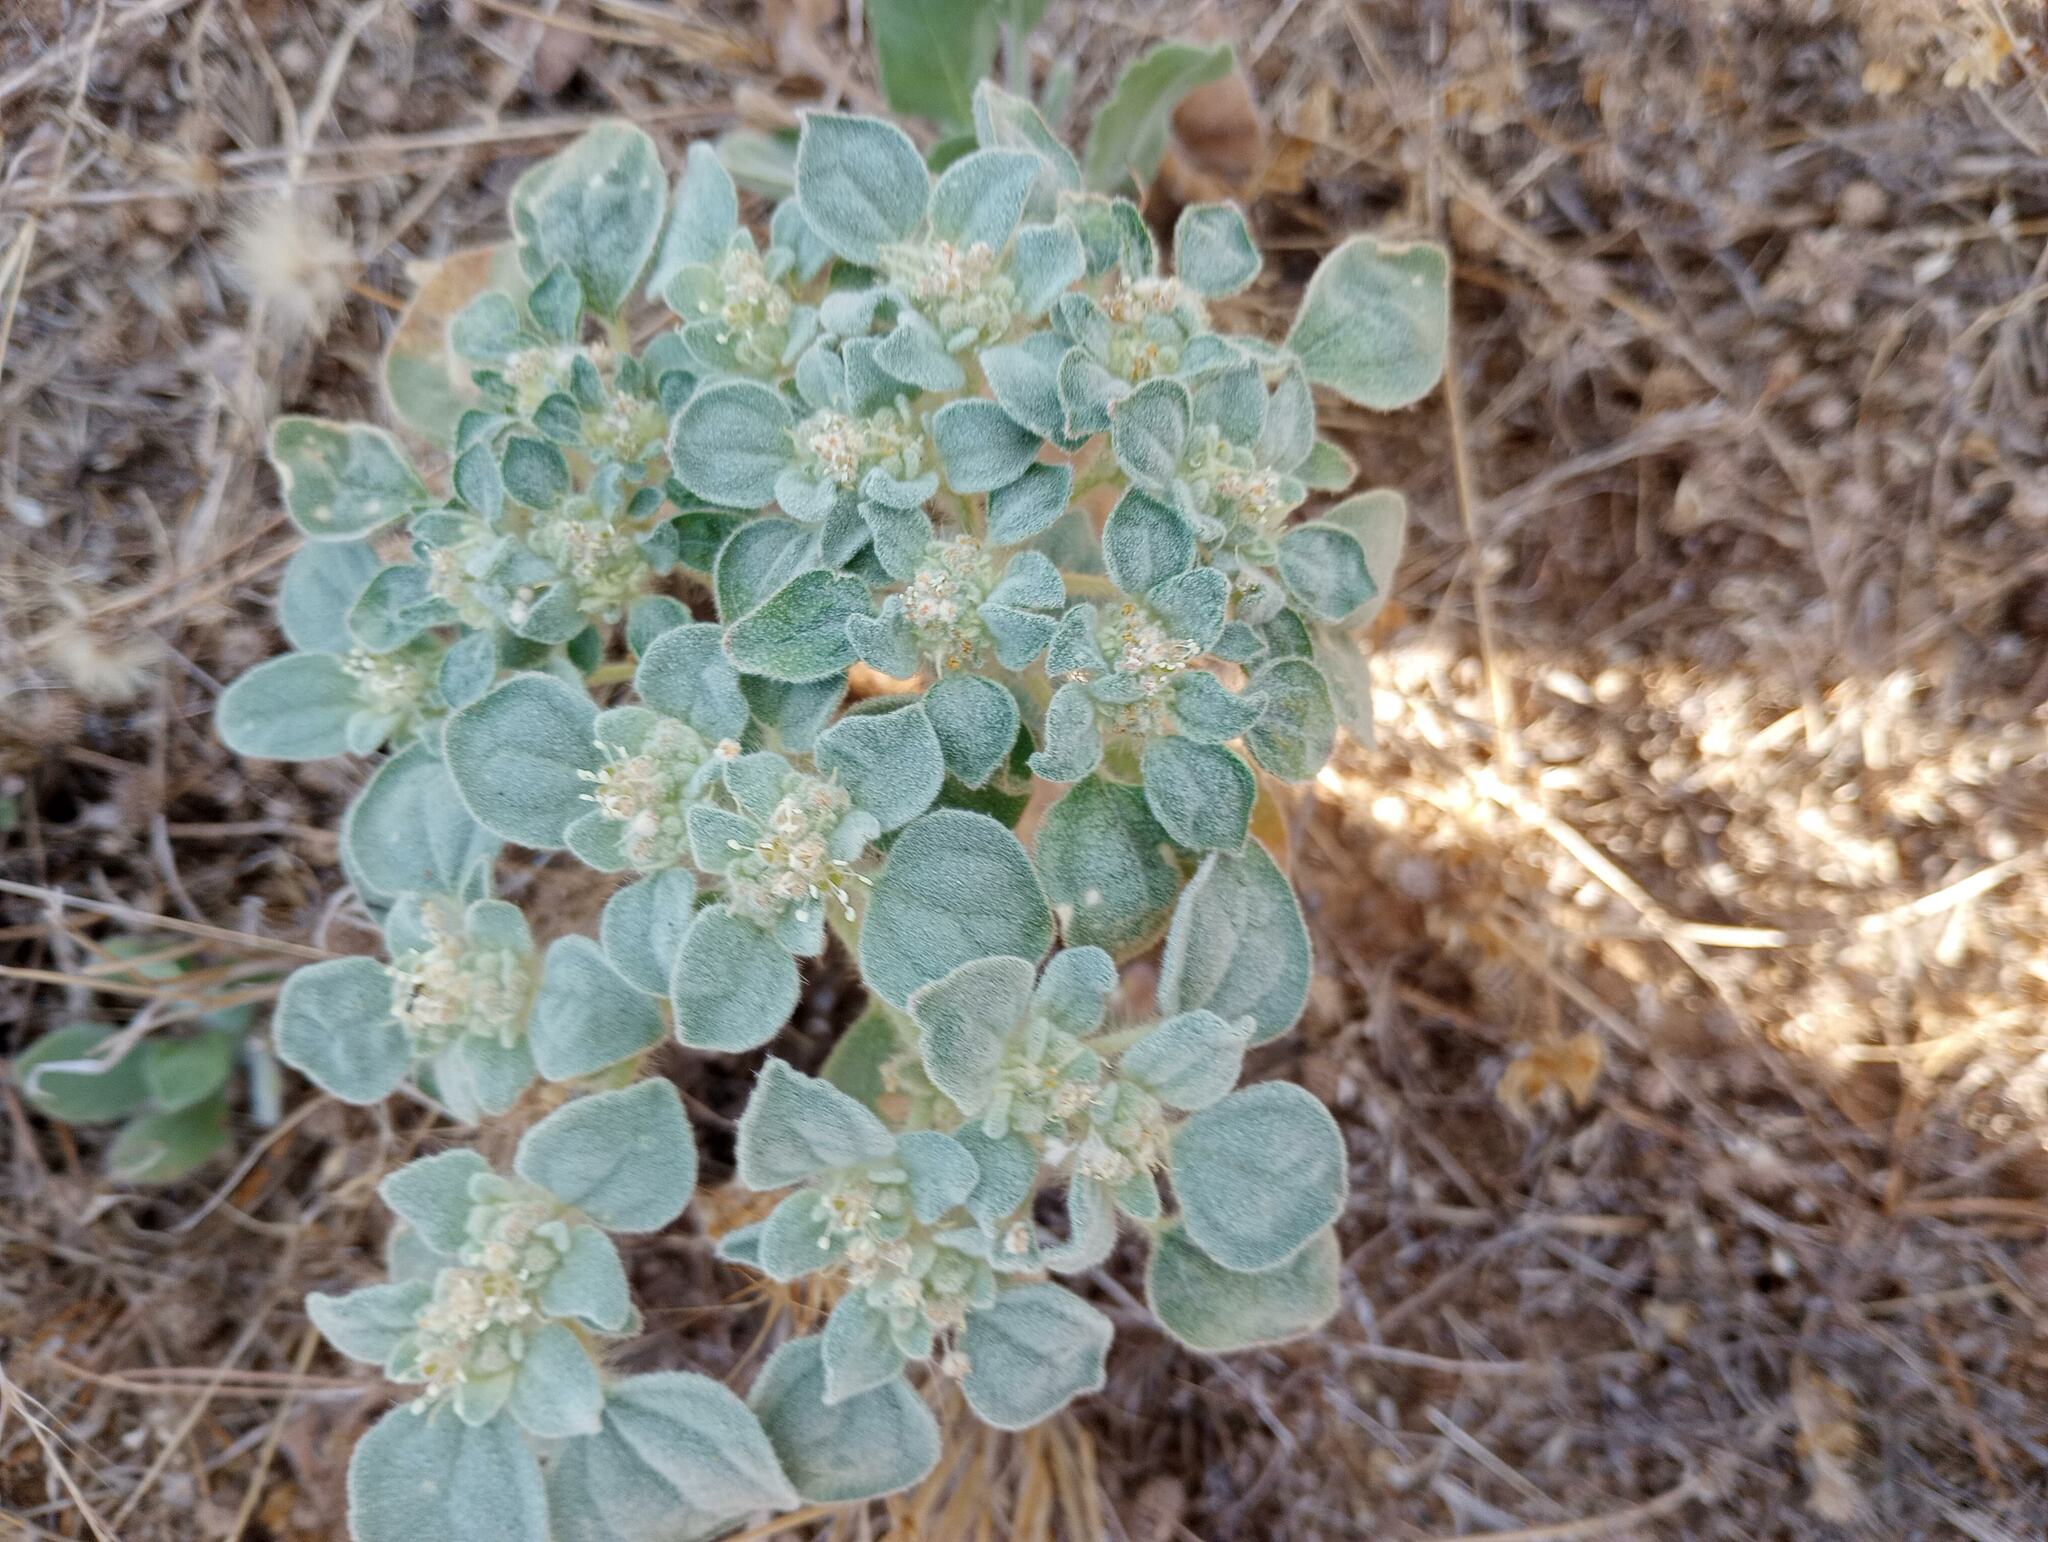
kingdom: Plantae
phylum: Tracheophyta
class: Magnoliopsida
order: Malpighiales
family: Euphorbiaceae
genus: Croton
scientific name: Croton setiger
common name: Dove weed
